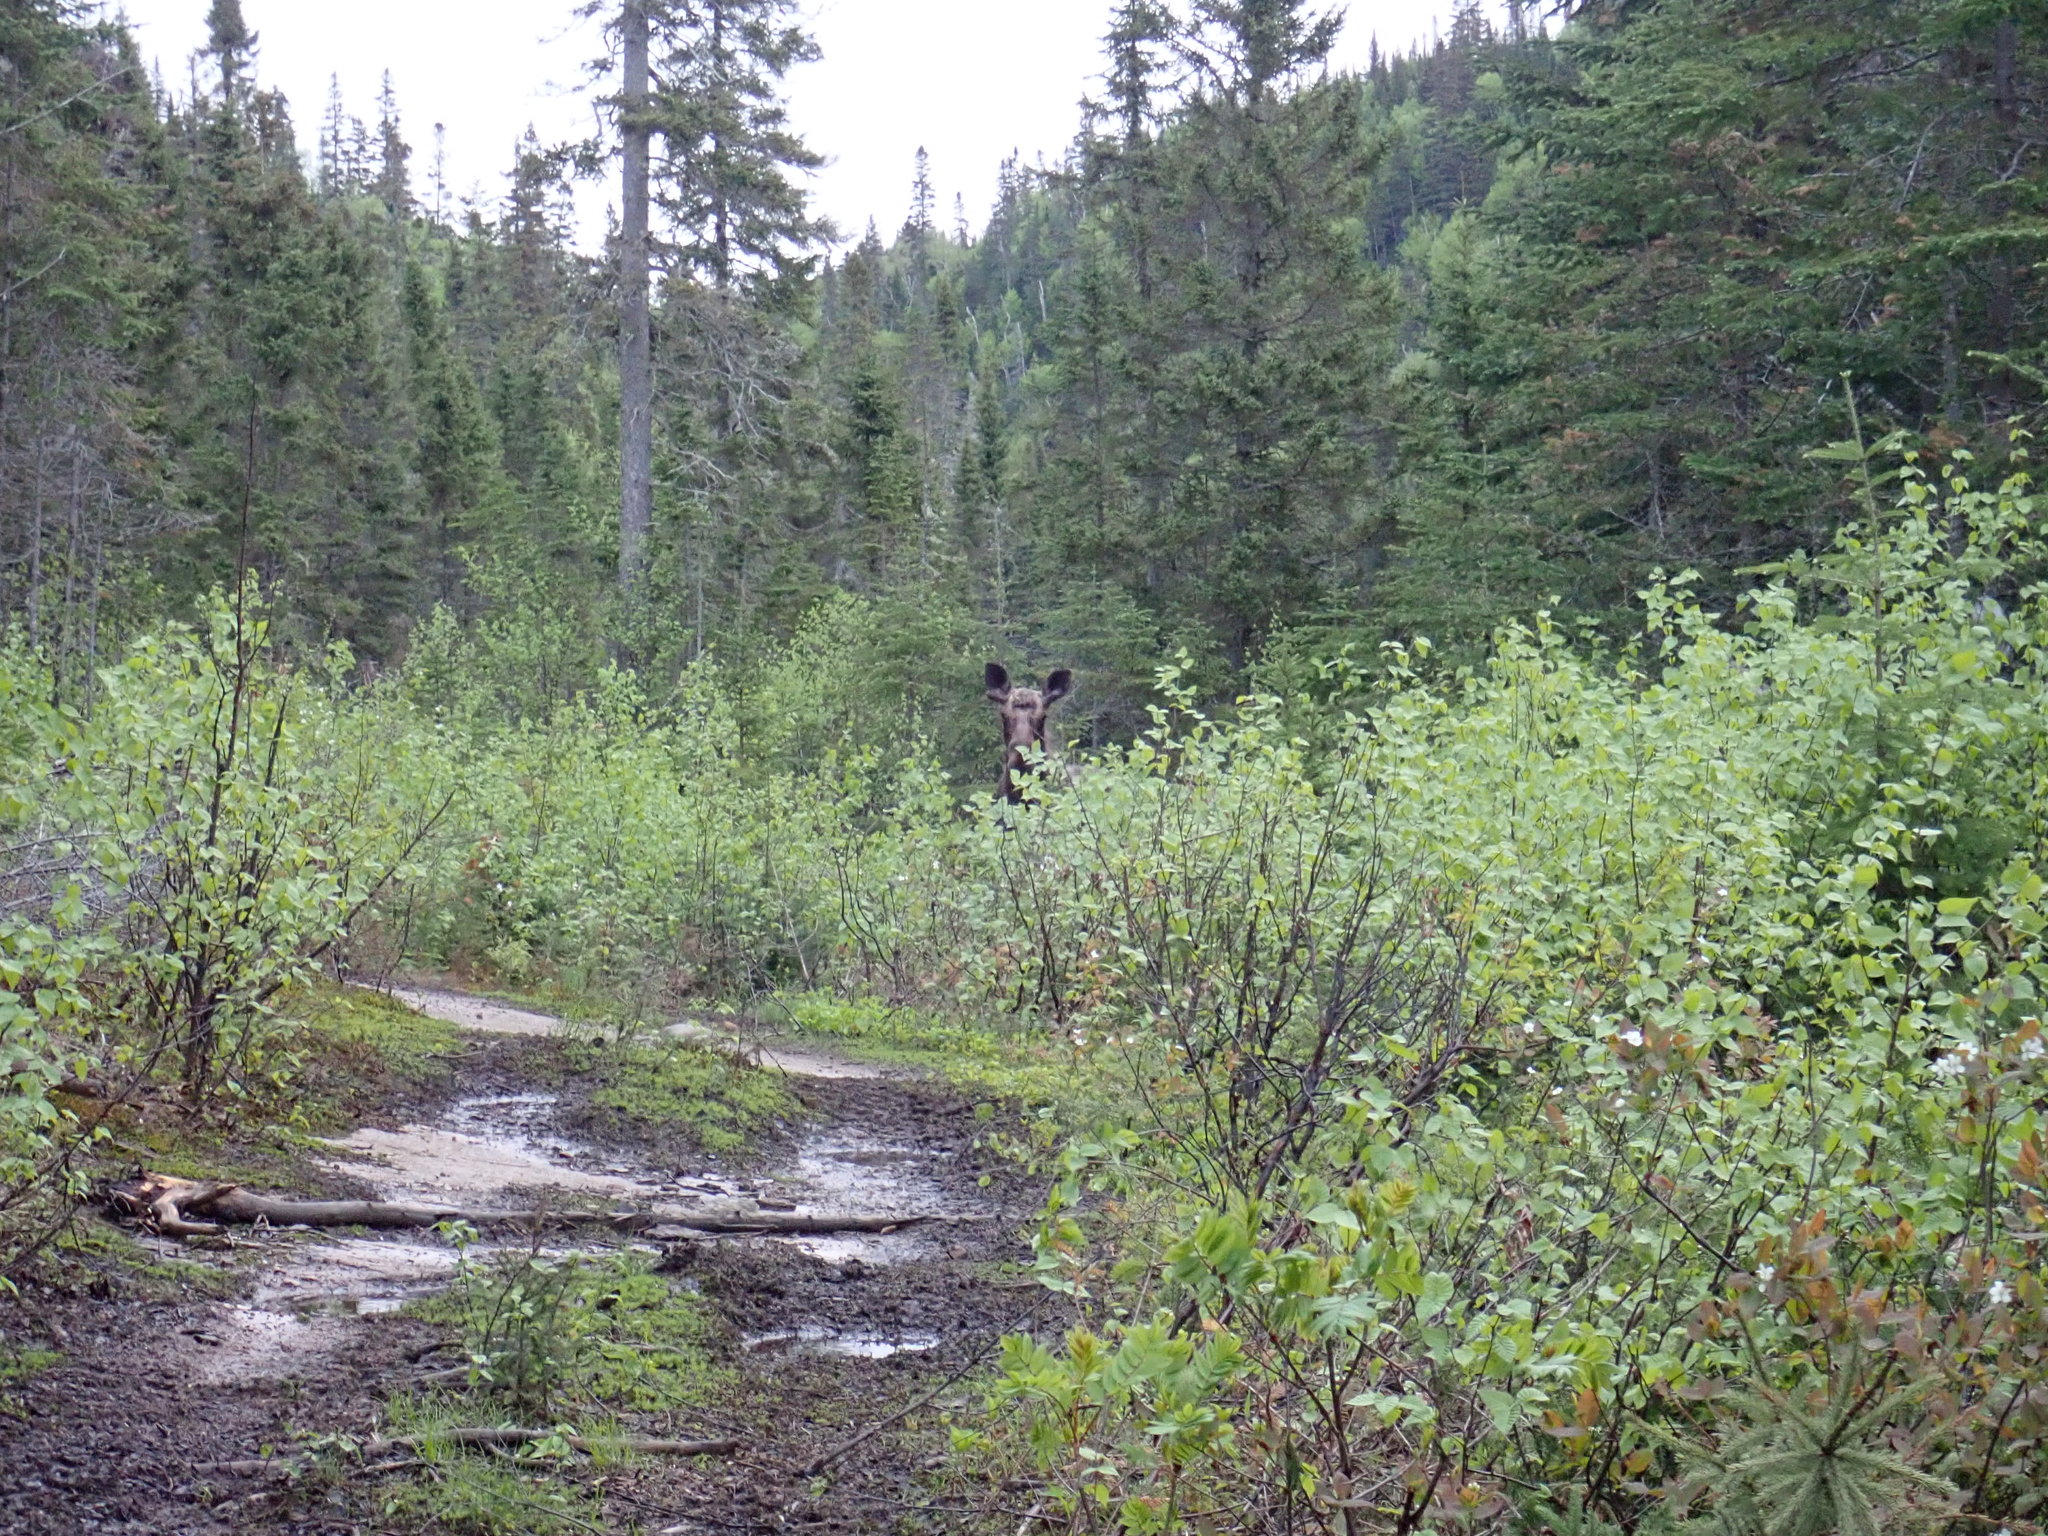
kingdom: Animalia
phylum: Chordata
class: Mammalia
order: Artiodactyla
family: Cervidae
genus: Alces
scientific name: Alces alces
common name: Moose
